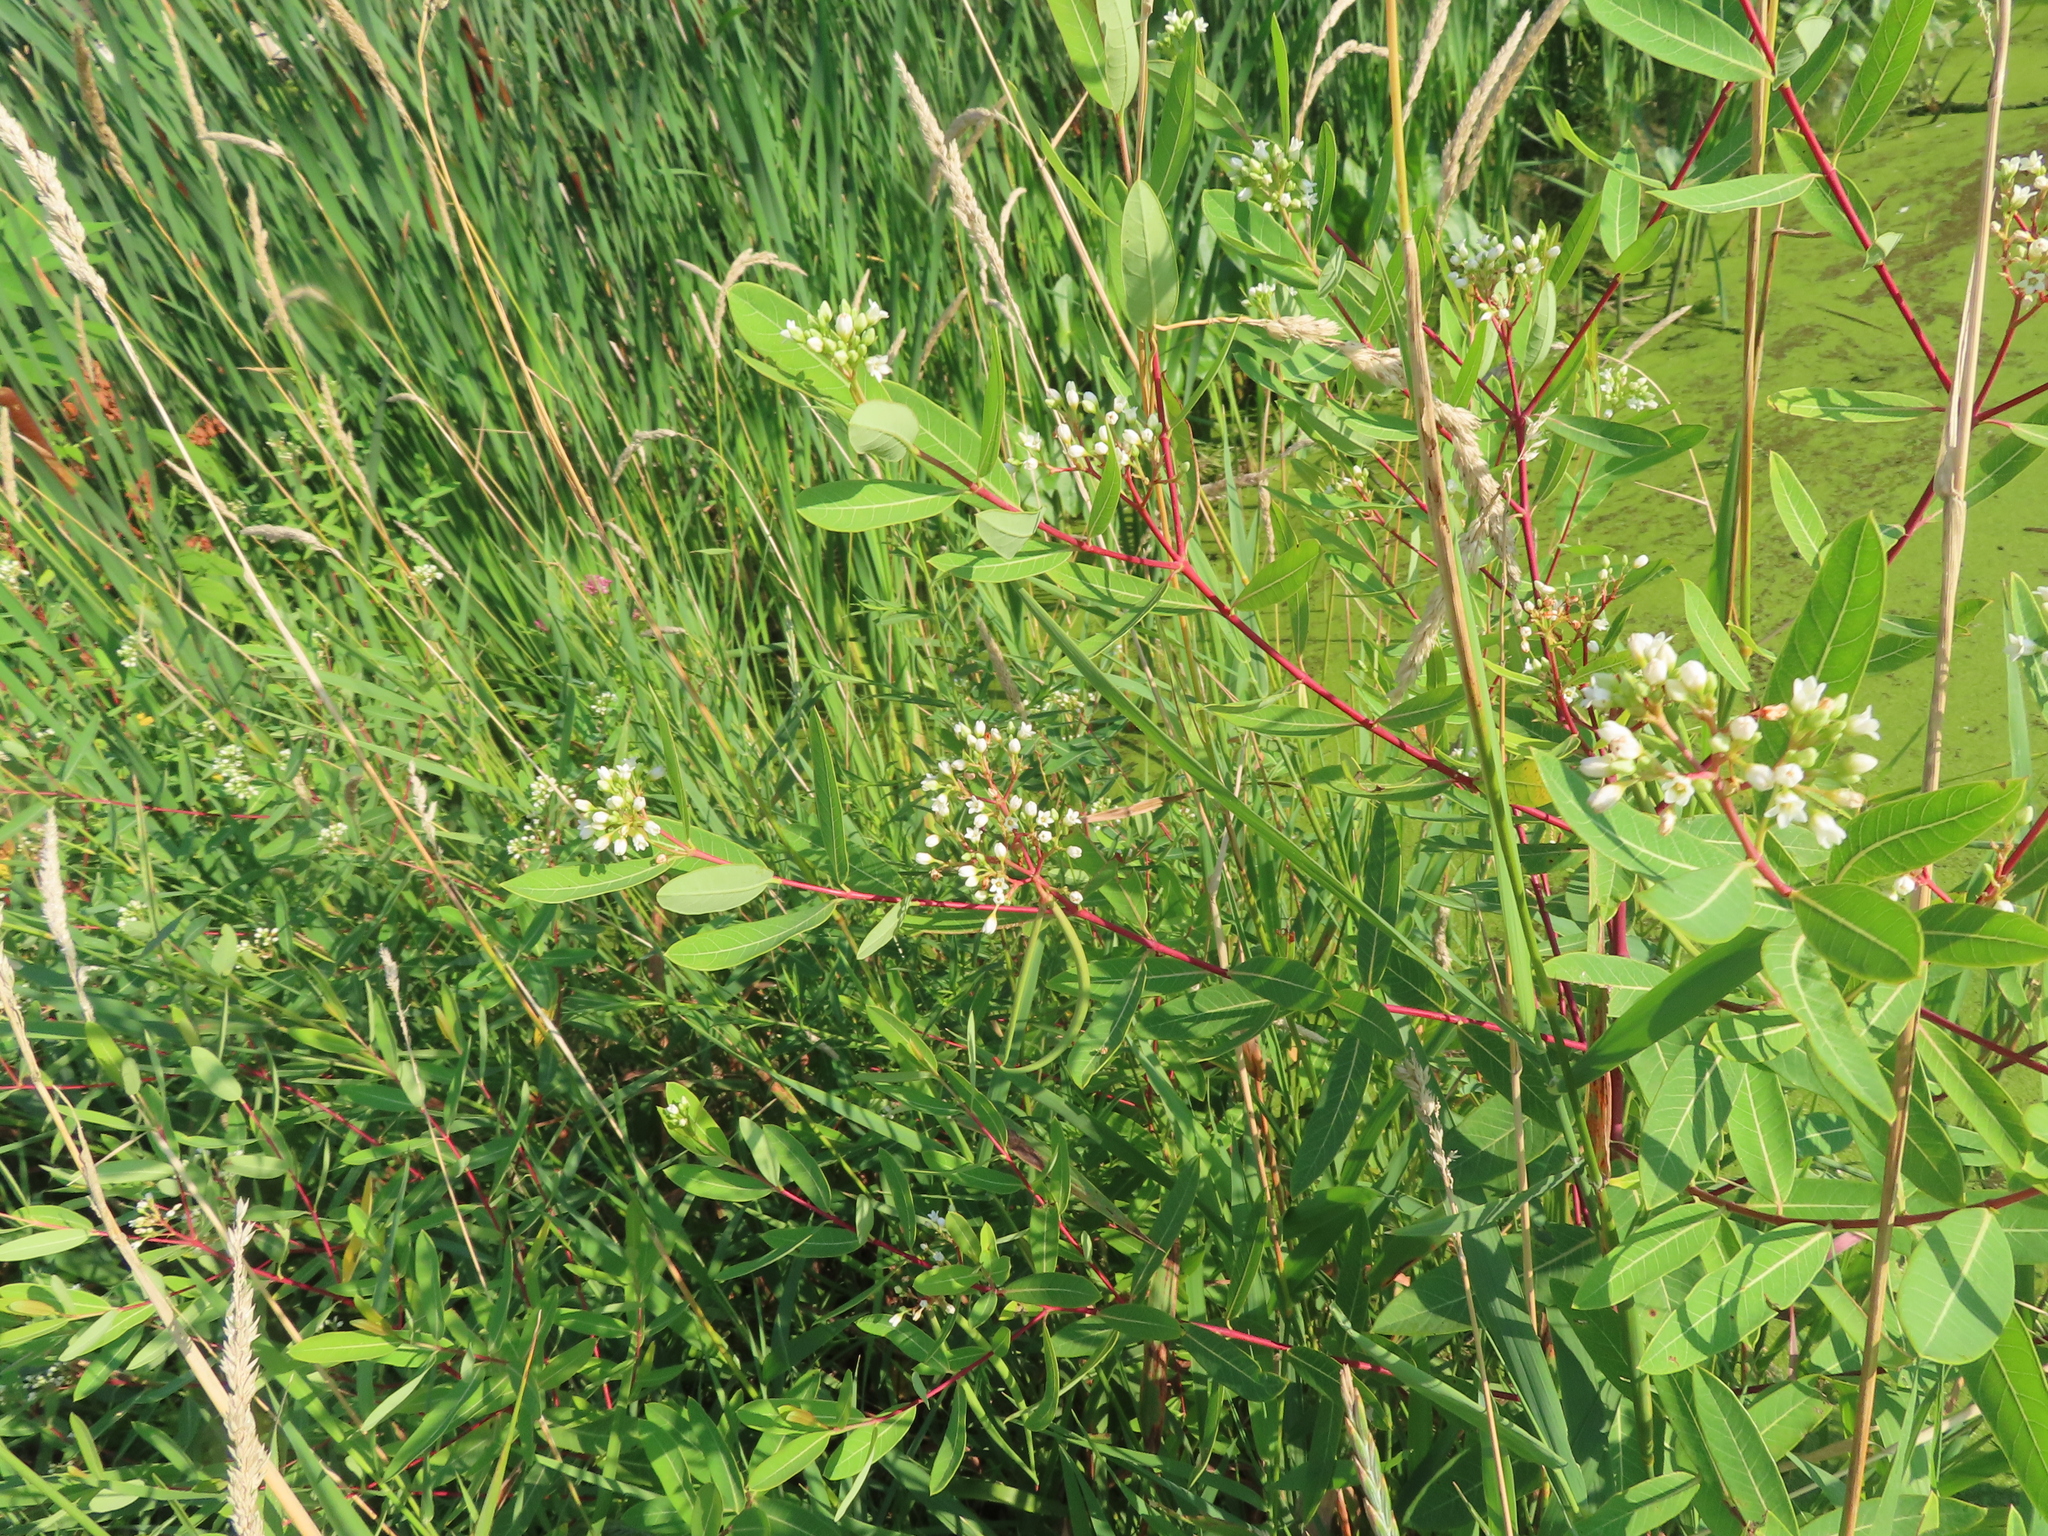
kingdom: Plantae
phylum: Tracheophyta
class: Magnoliopsida
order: Gentianales
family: Apocynaceae
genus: Apocynum
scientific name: Apocynum cannabinum
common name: Hemp dogbane
